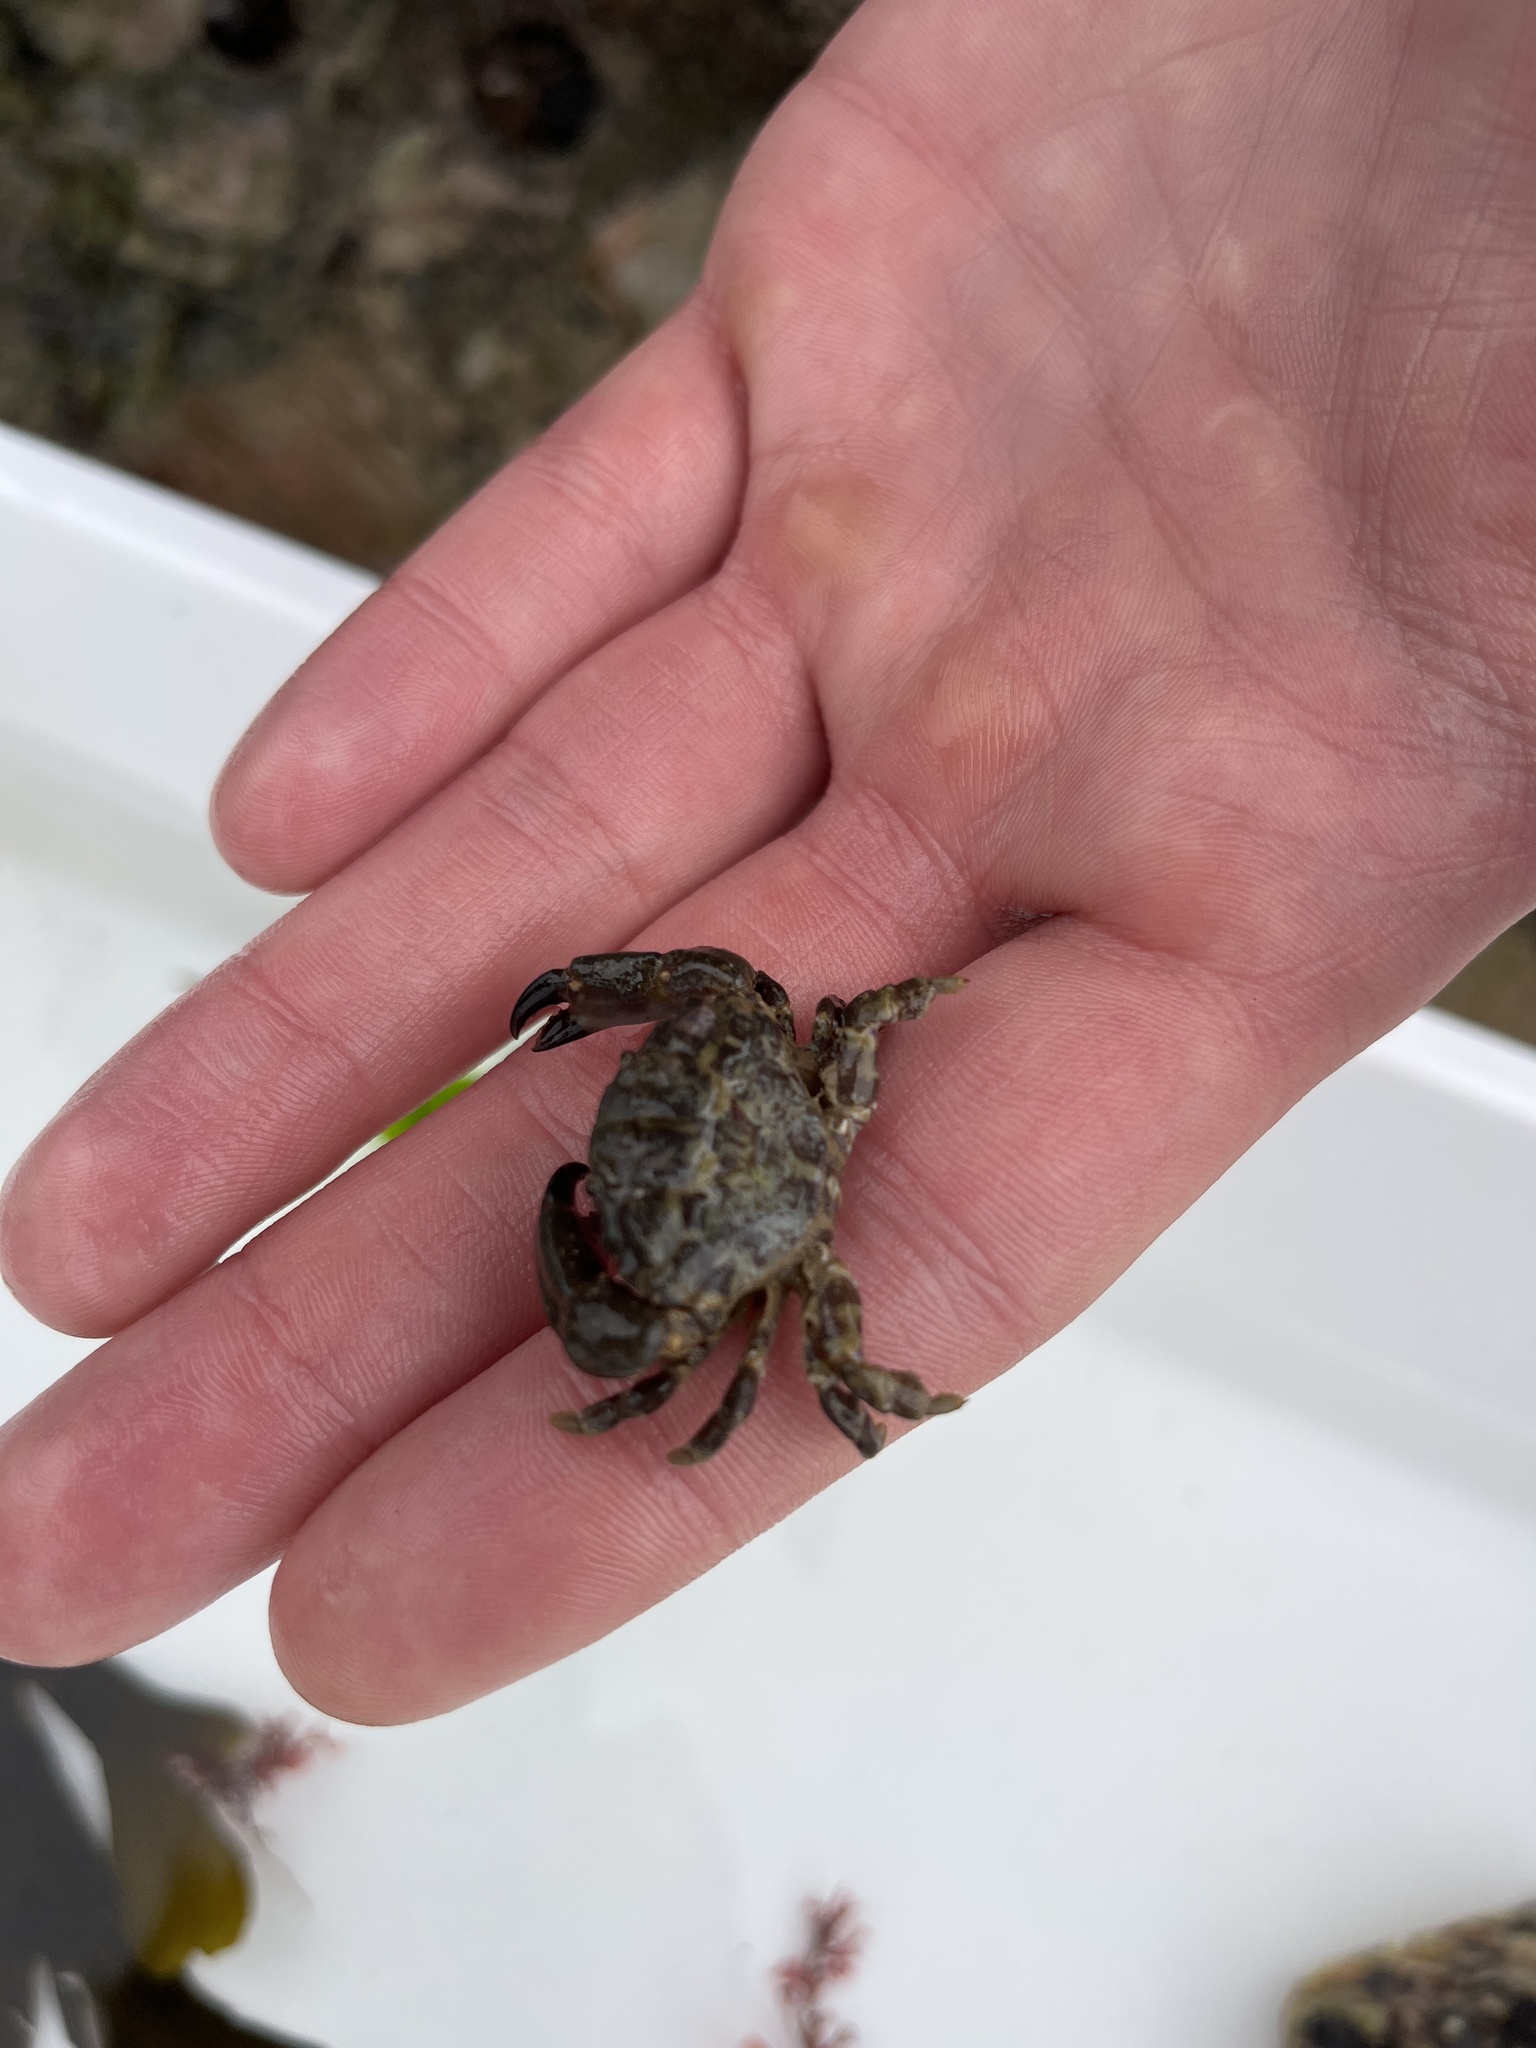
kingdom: Animalia
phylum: Arthropoda
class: Malacostraca
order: Decapoda
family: Xanthidae
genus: Xantho
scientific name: Xantho hydrophilus
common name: Montagu's crab
